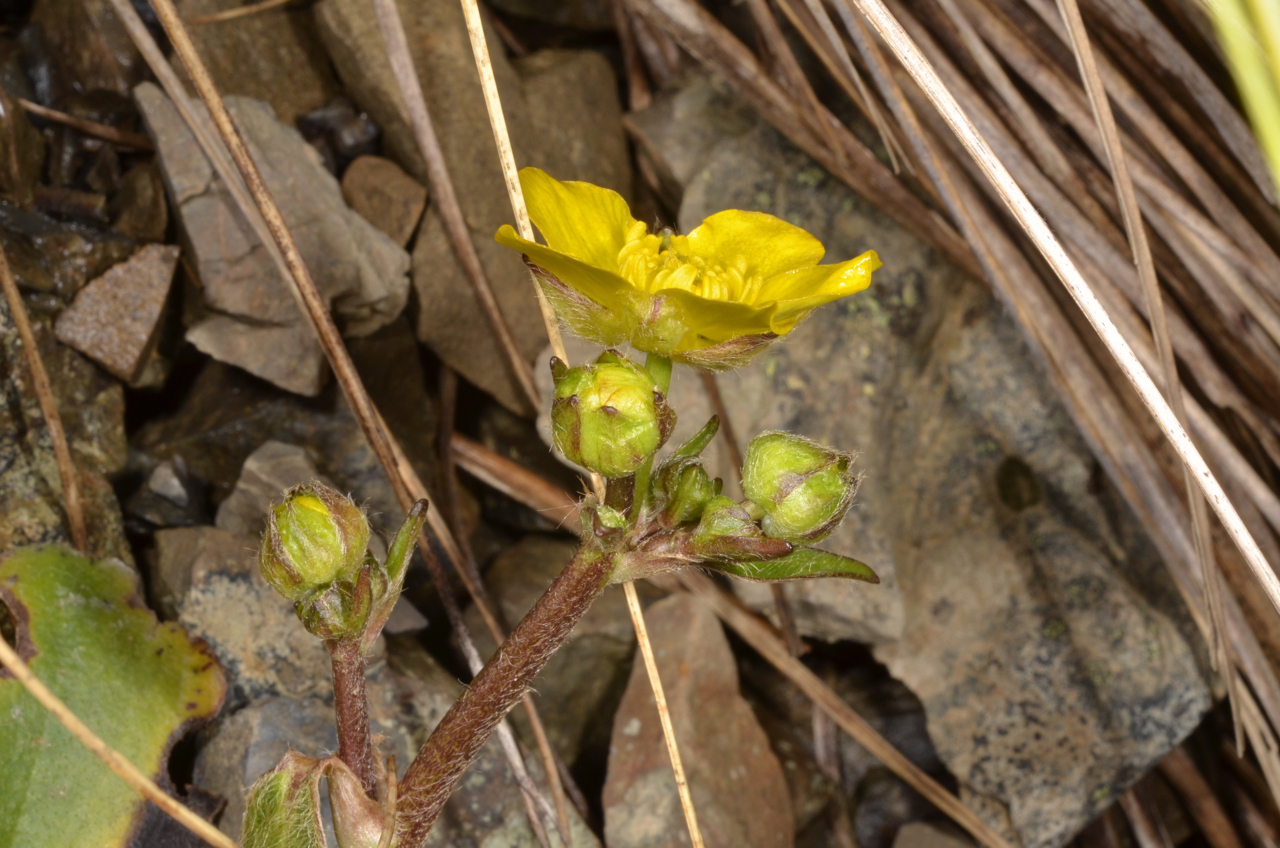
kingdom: Plantae
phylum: Tracheophyta
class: Magnoliopsida
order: Ranunculales
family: Ranunculaceae
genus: Ranunculus
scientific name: Ranunculus insignis
